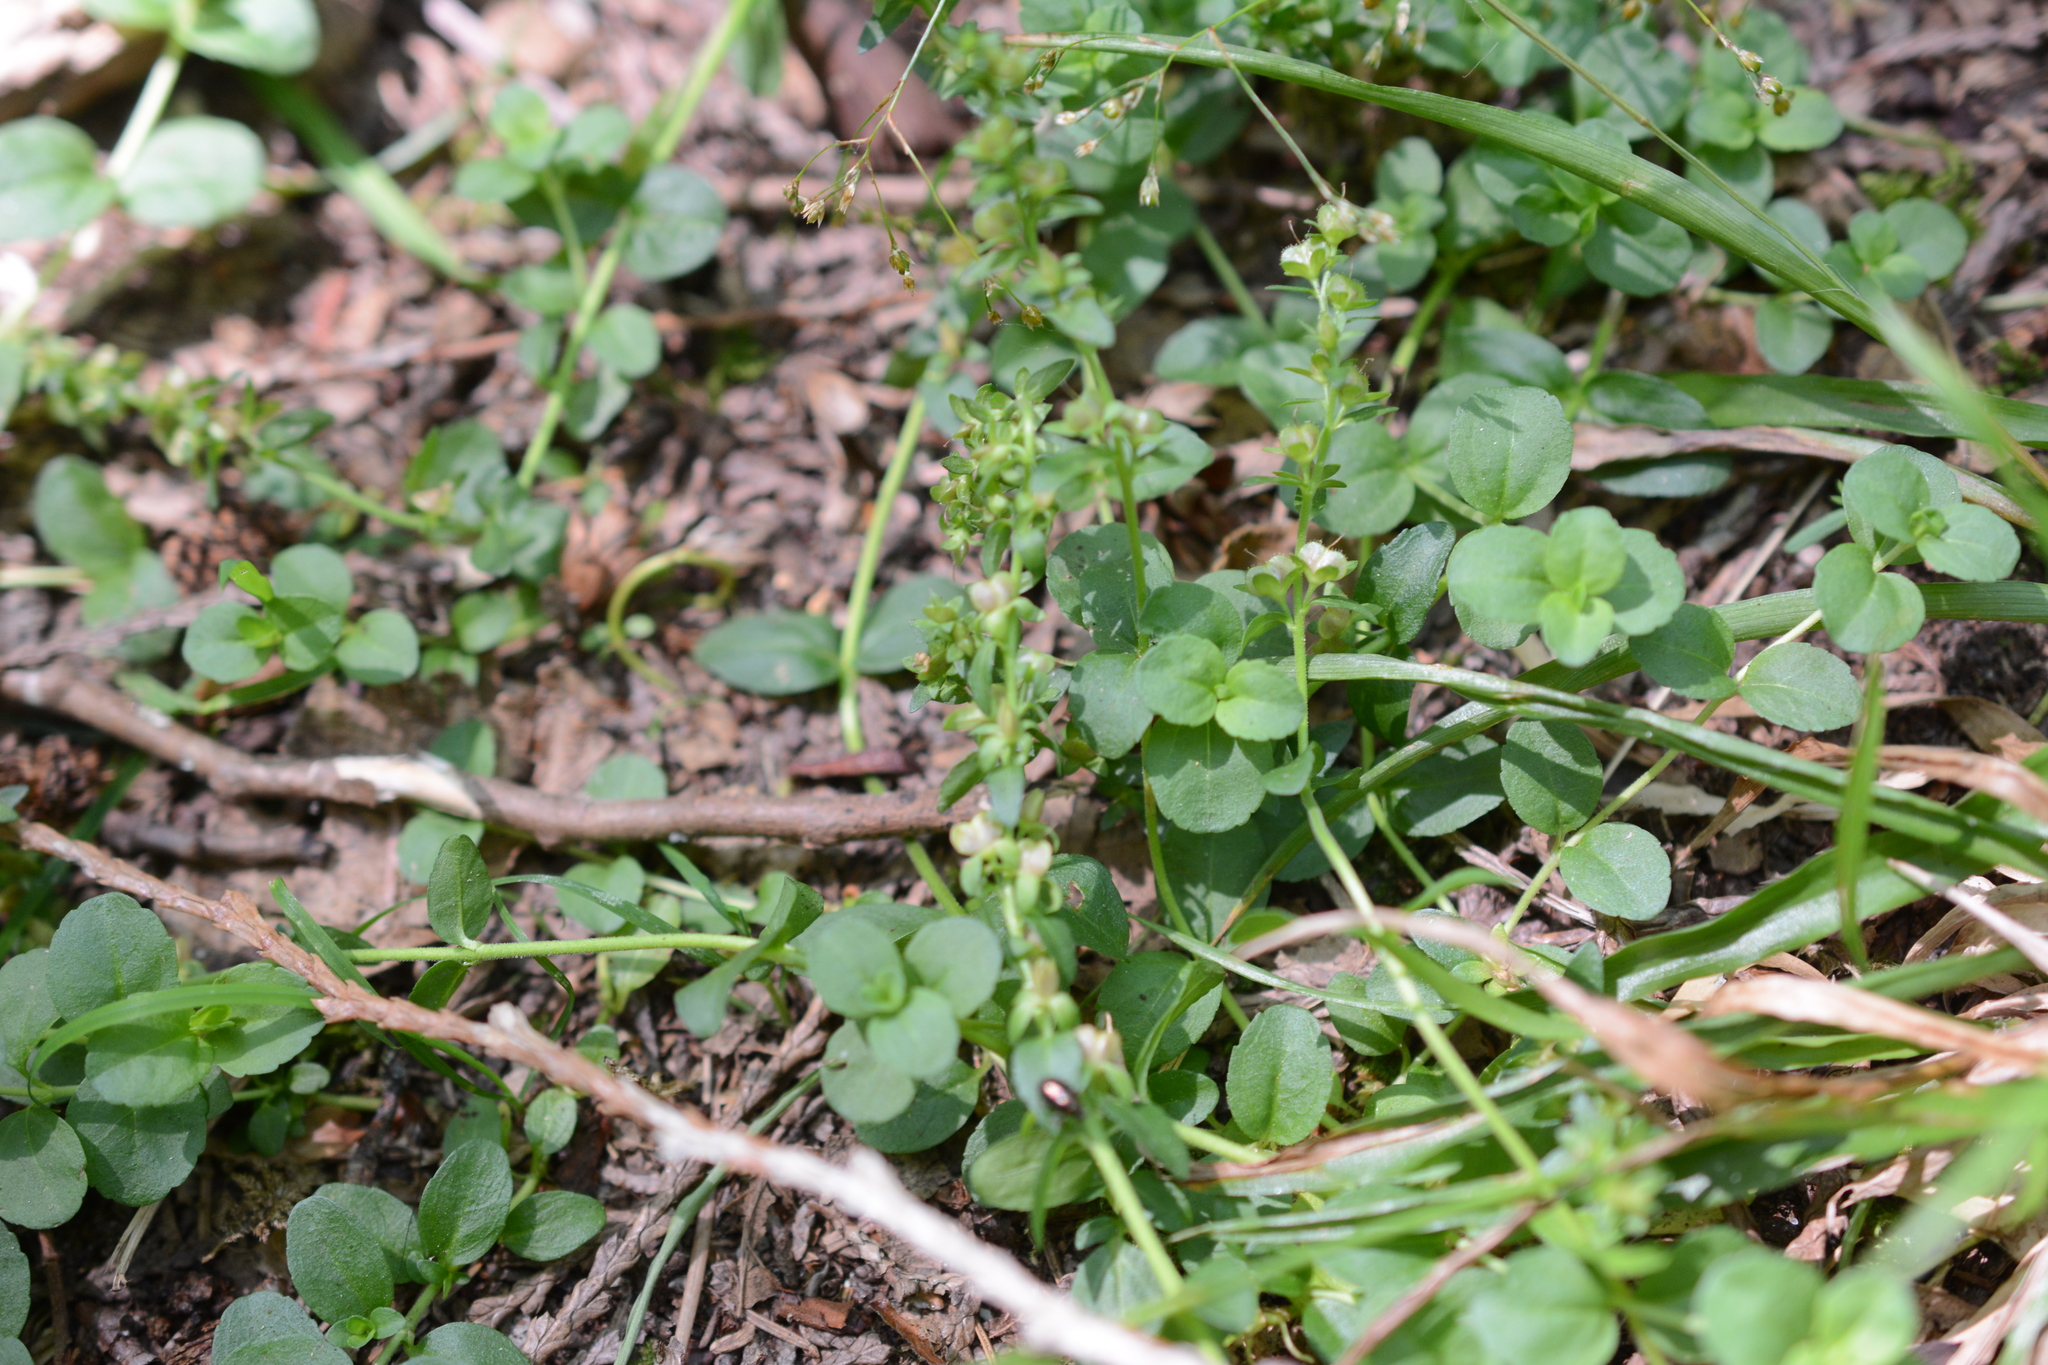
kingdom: Plantae
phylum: Tracheophyta
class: Magnoliopsida
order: Lamiales
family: Plantaginaceae
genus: Veronica
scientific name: Veronica serpyllifolia
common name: Thyme-leaved speedwell
